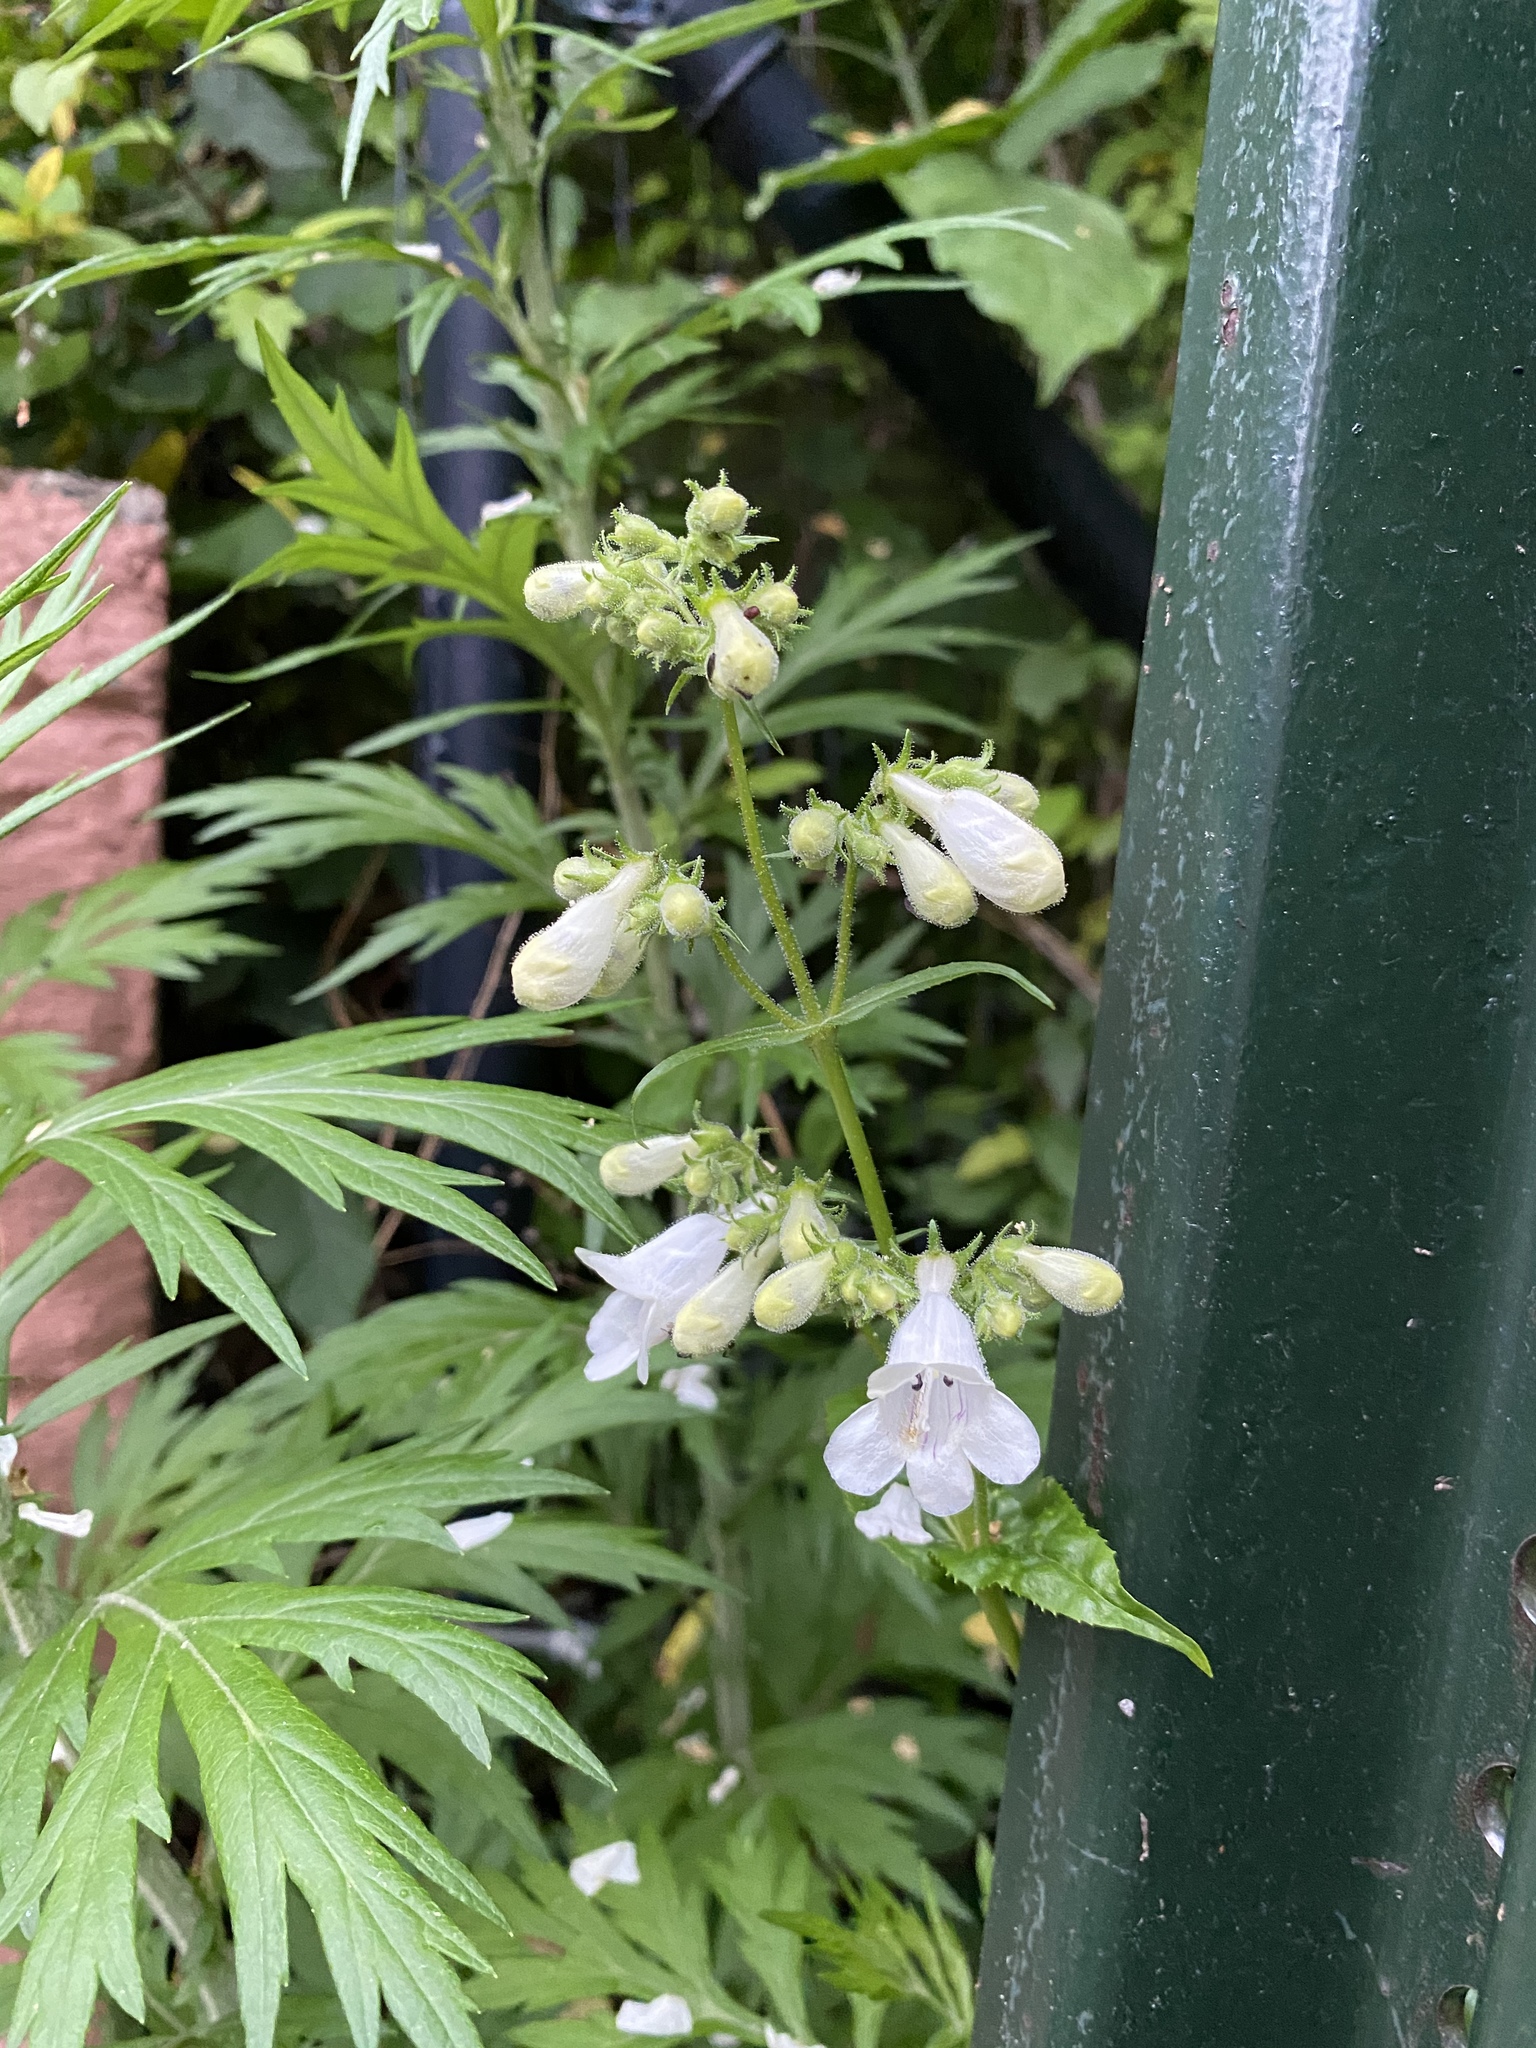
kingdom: Plantae
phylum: Tracheophyta
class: Magnoliopsida
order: Lamiales
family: Plantaginaceae
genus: Penstemon
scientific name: Penstemon digitalis
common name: Foxglove beardtongue
